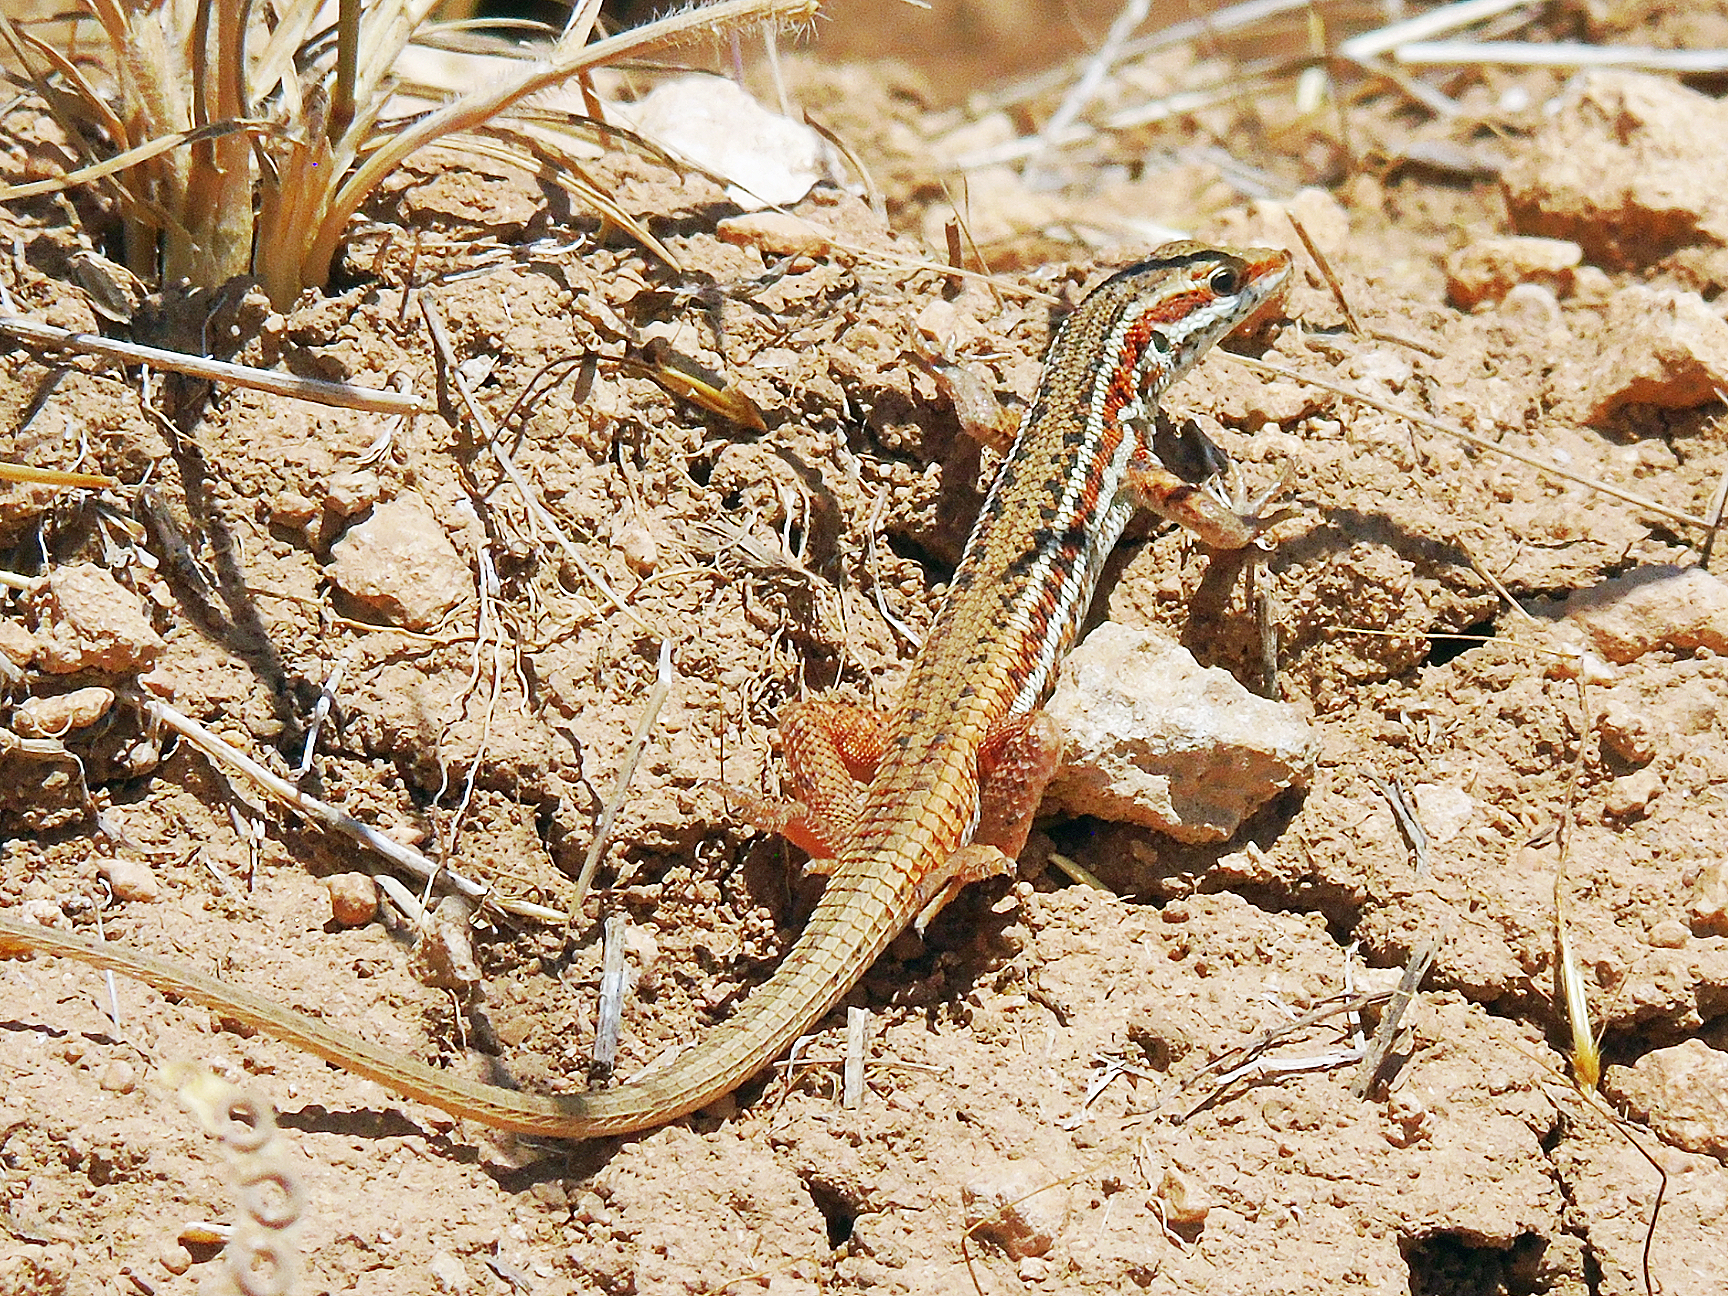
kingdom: Animalia
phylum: Chordata
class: Squamata
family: Lacertidae
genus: Ophisops
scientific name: Ophisops elegans
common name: Snake-eyed lizard
